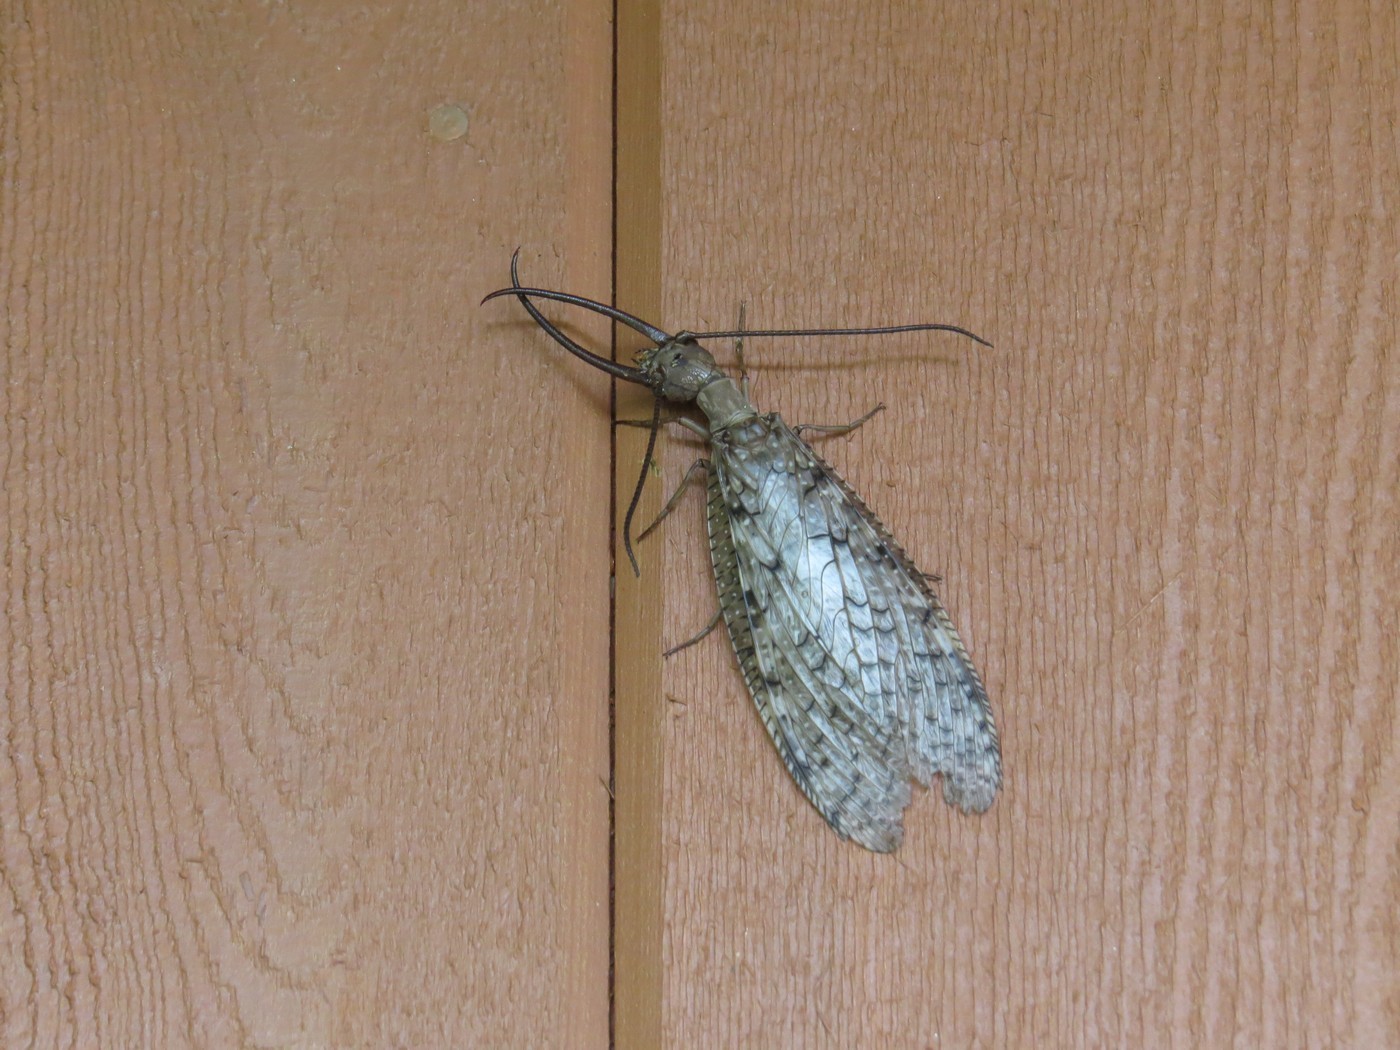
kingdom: Animalia
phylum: Arthropoda
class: Insecta
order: Megaloptera
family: Corydalidae
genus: Corydalus
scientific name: Corydalus cornutus
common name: Dobsonfly
